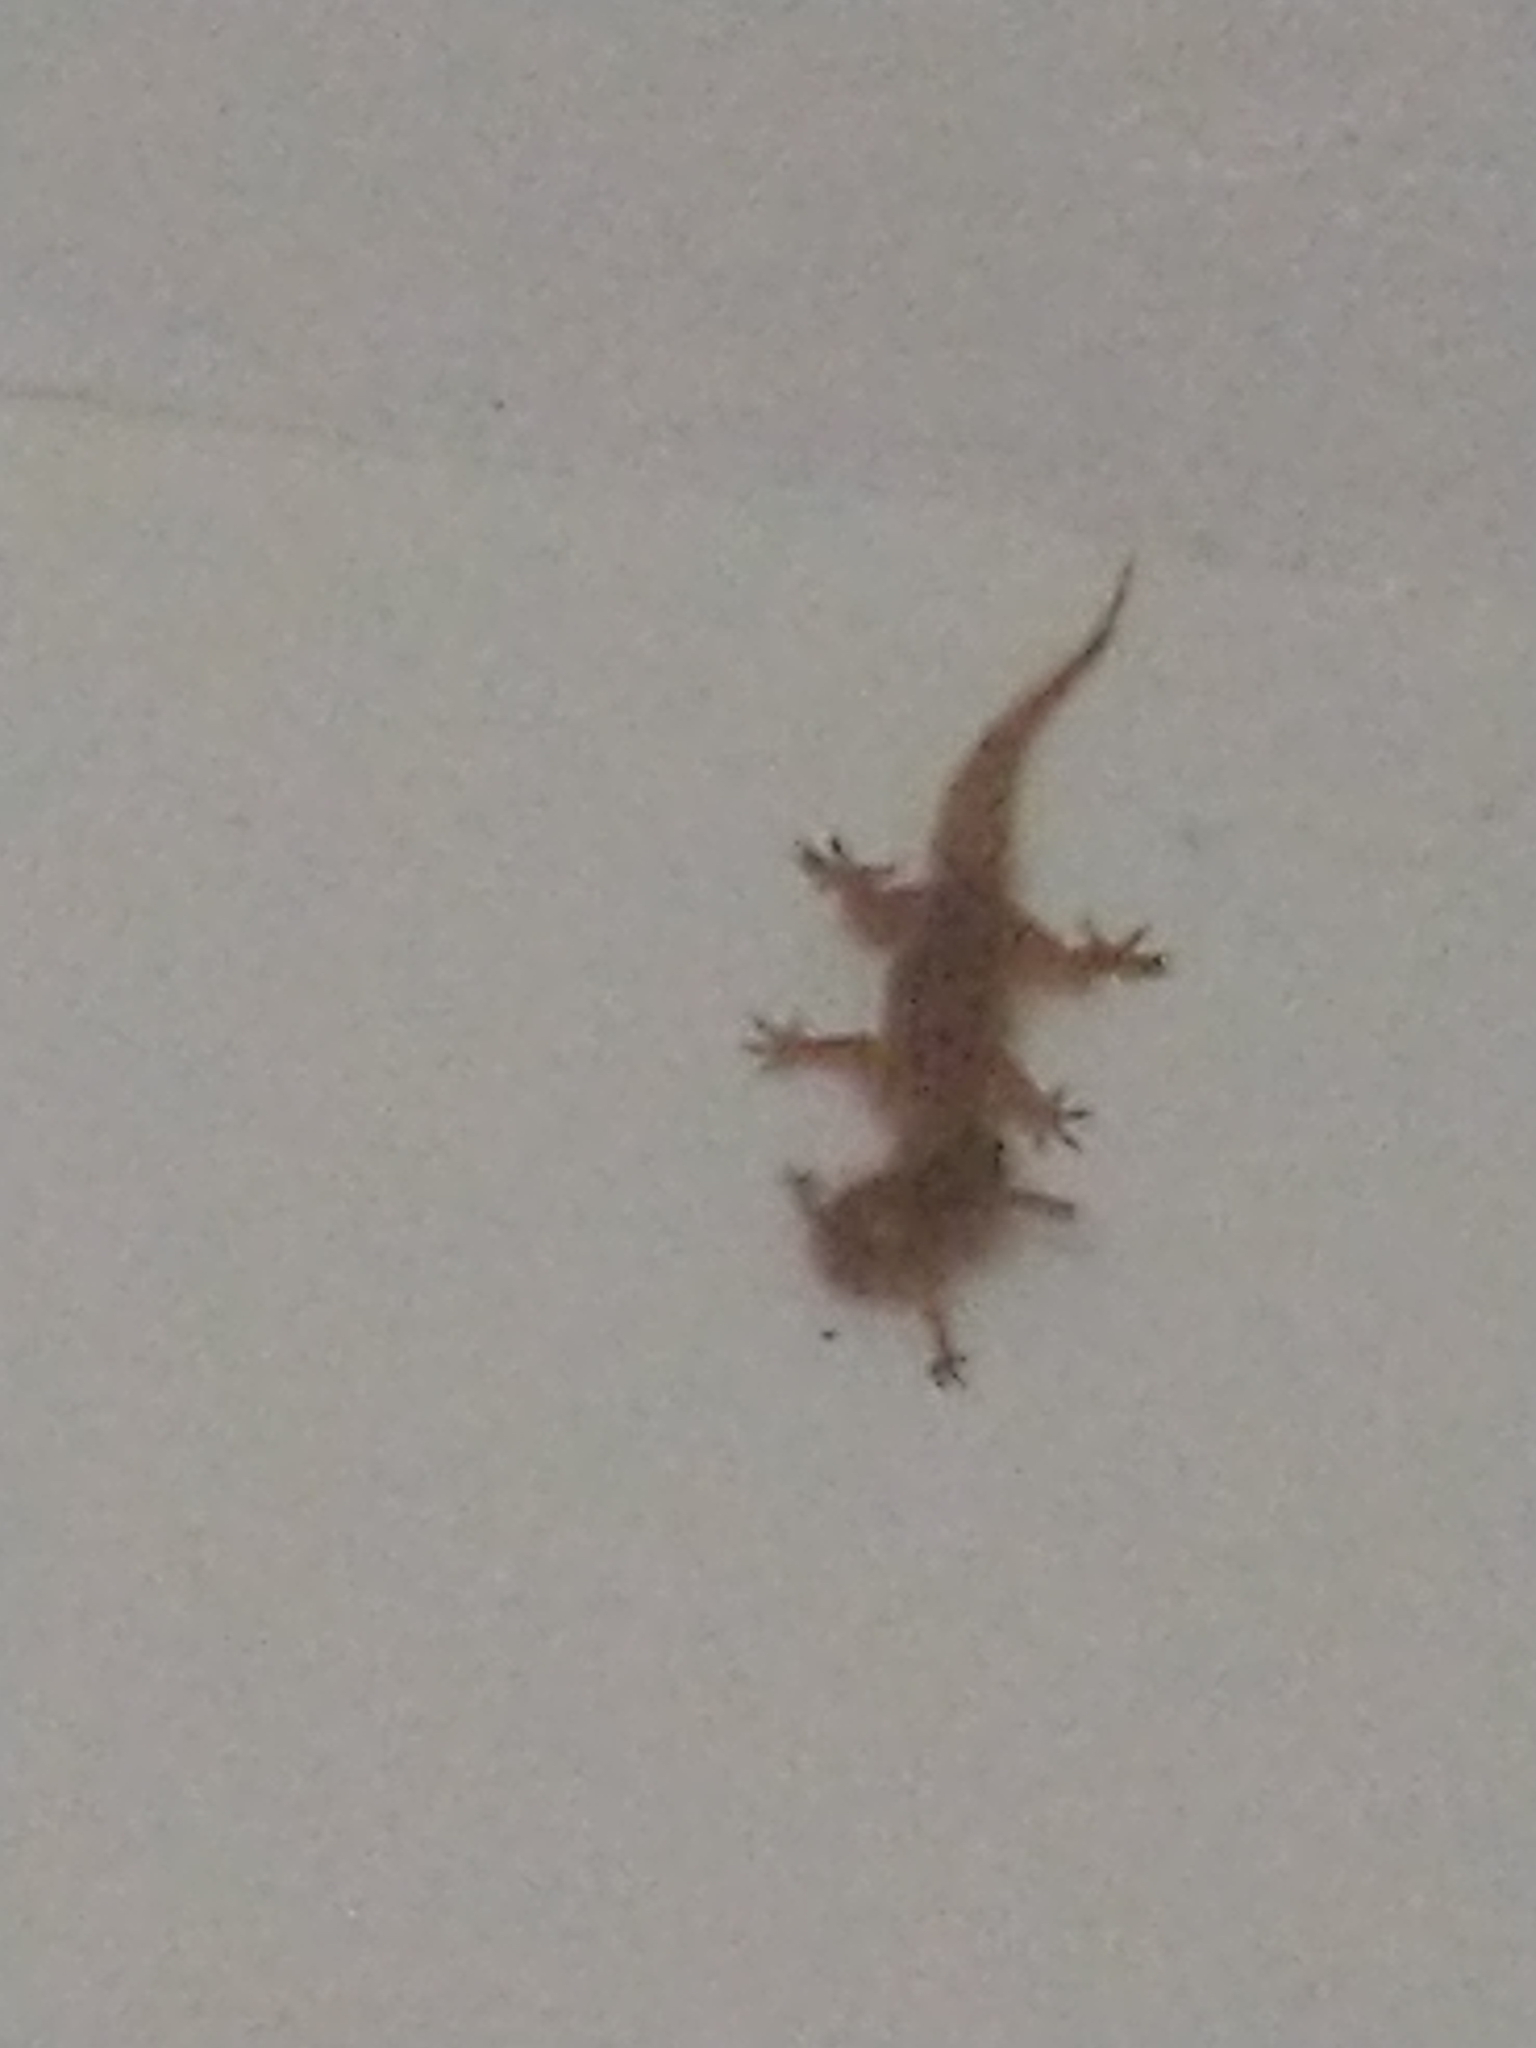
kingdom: Animalia
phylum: Chordata
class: Squamata
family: Gekkonidae
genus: Hemidactylus
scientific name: Hemidactylus parvimaculatus
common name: Spotted house gecko
